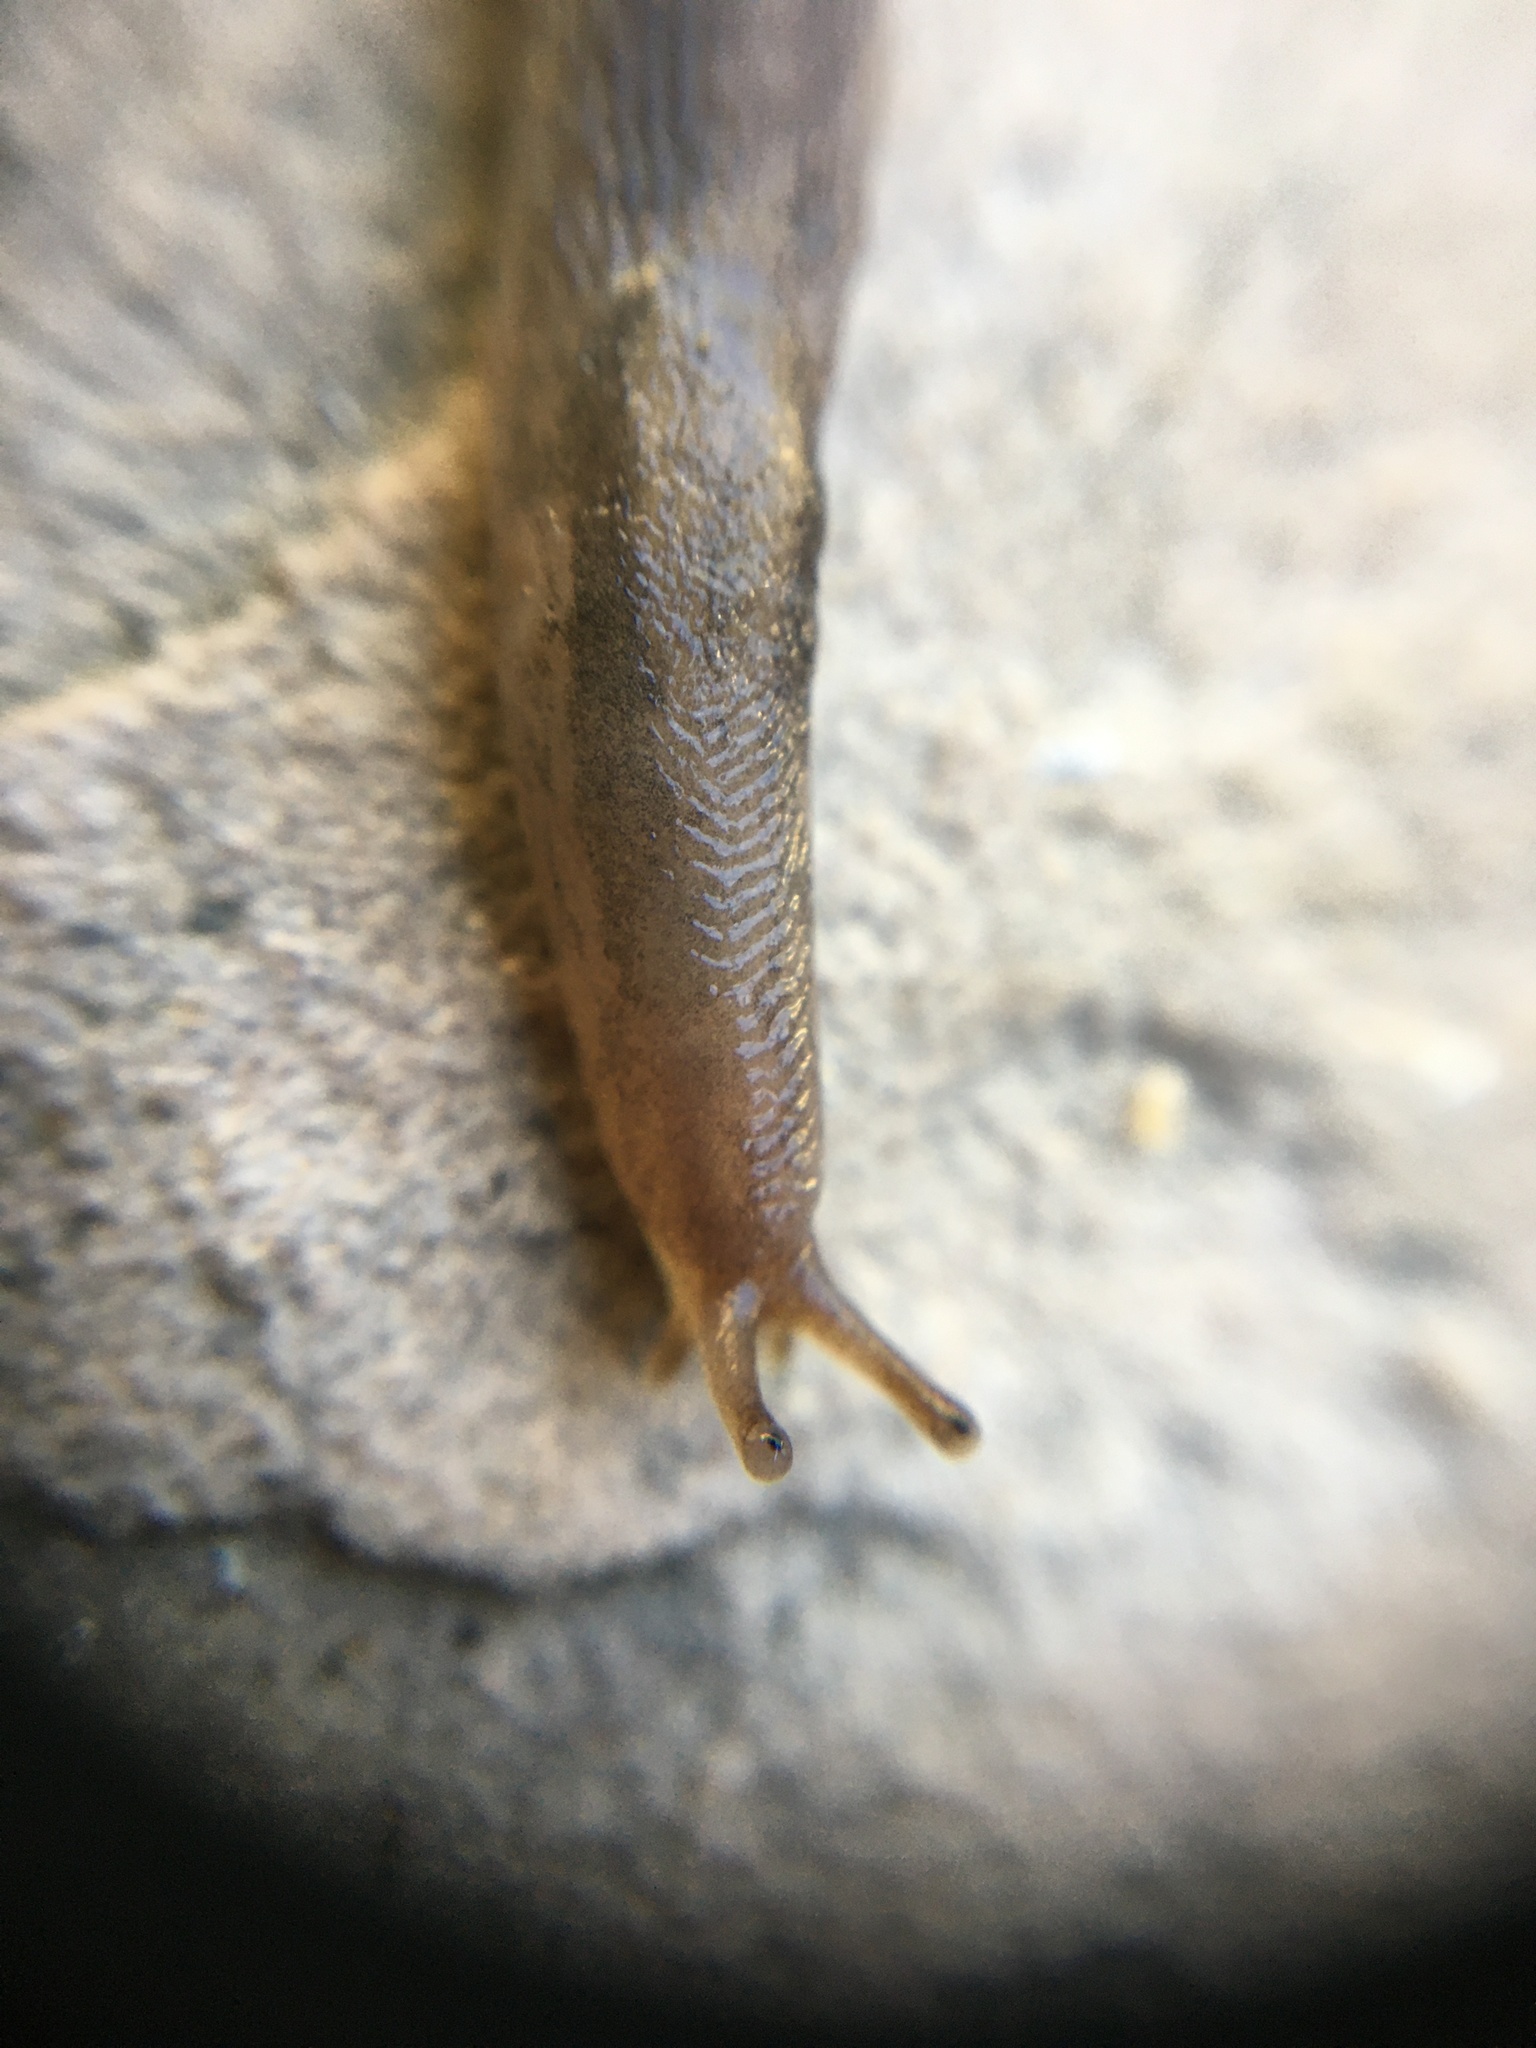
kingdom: Animalia
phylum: Mollusca
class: Gastropoda
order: Stylommatophora
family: Limacidae
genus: Ambigolimax
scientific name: Ambigolimax
